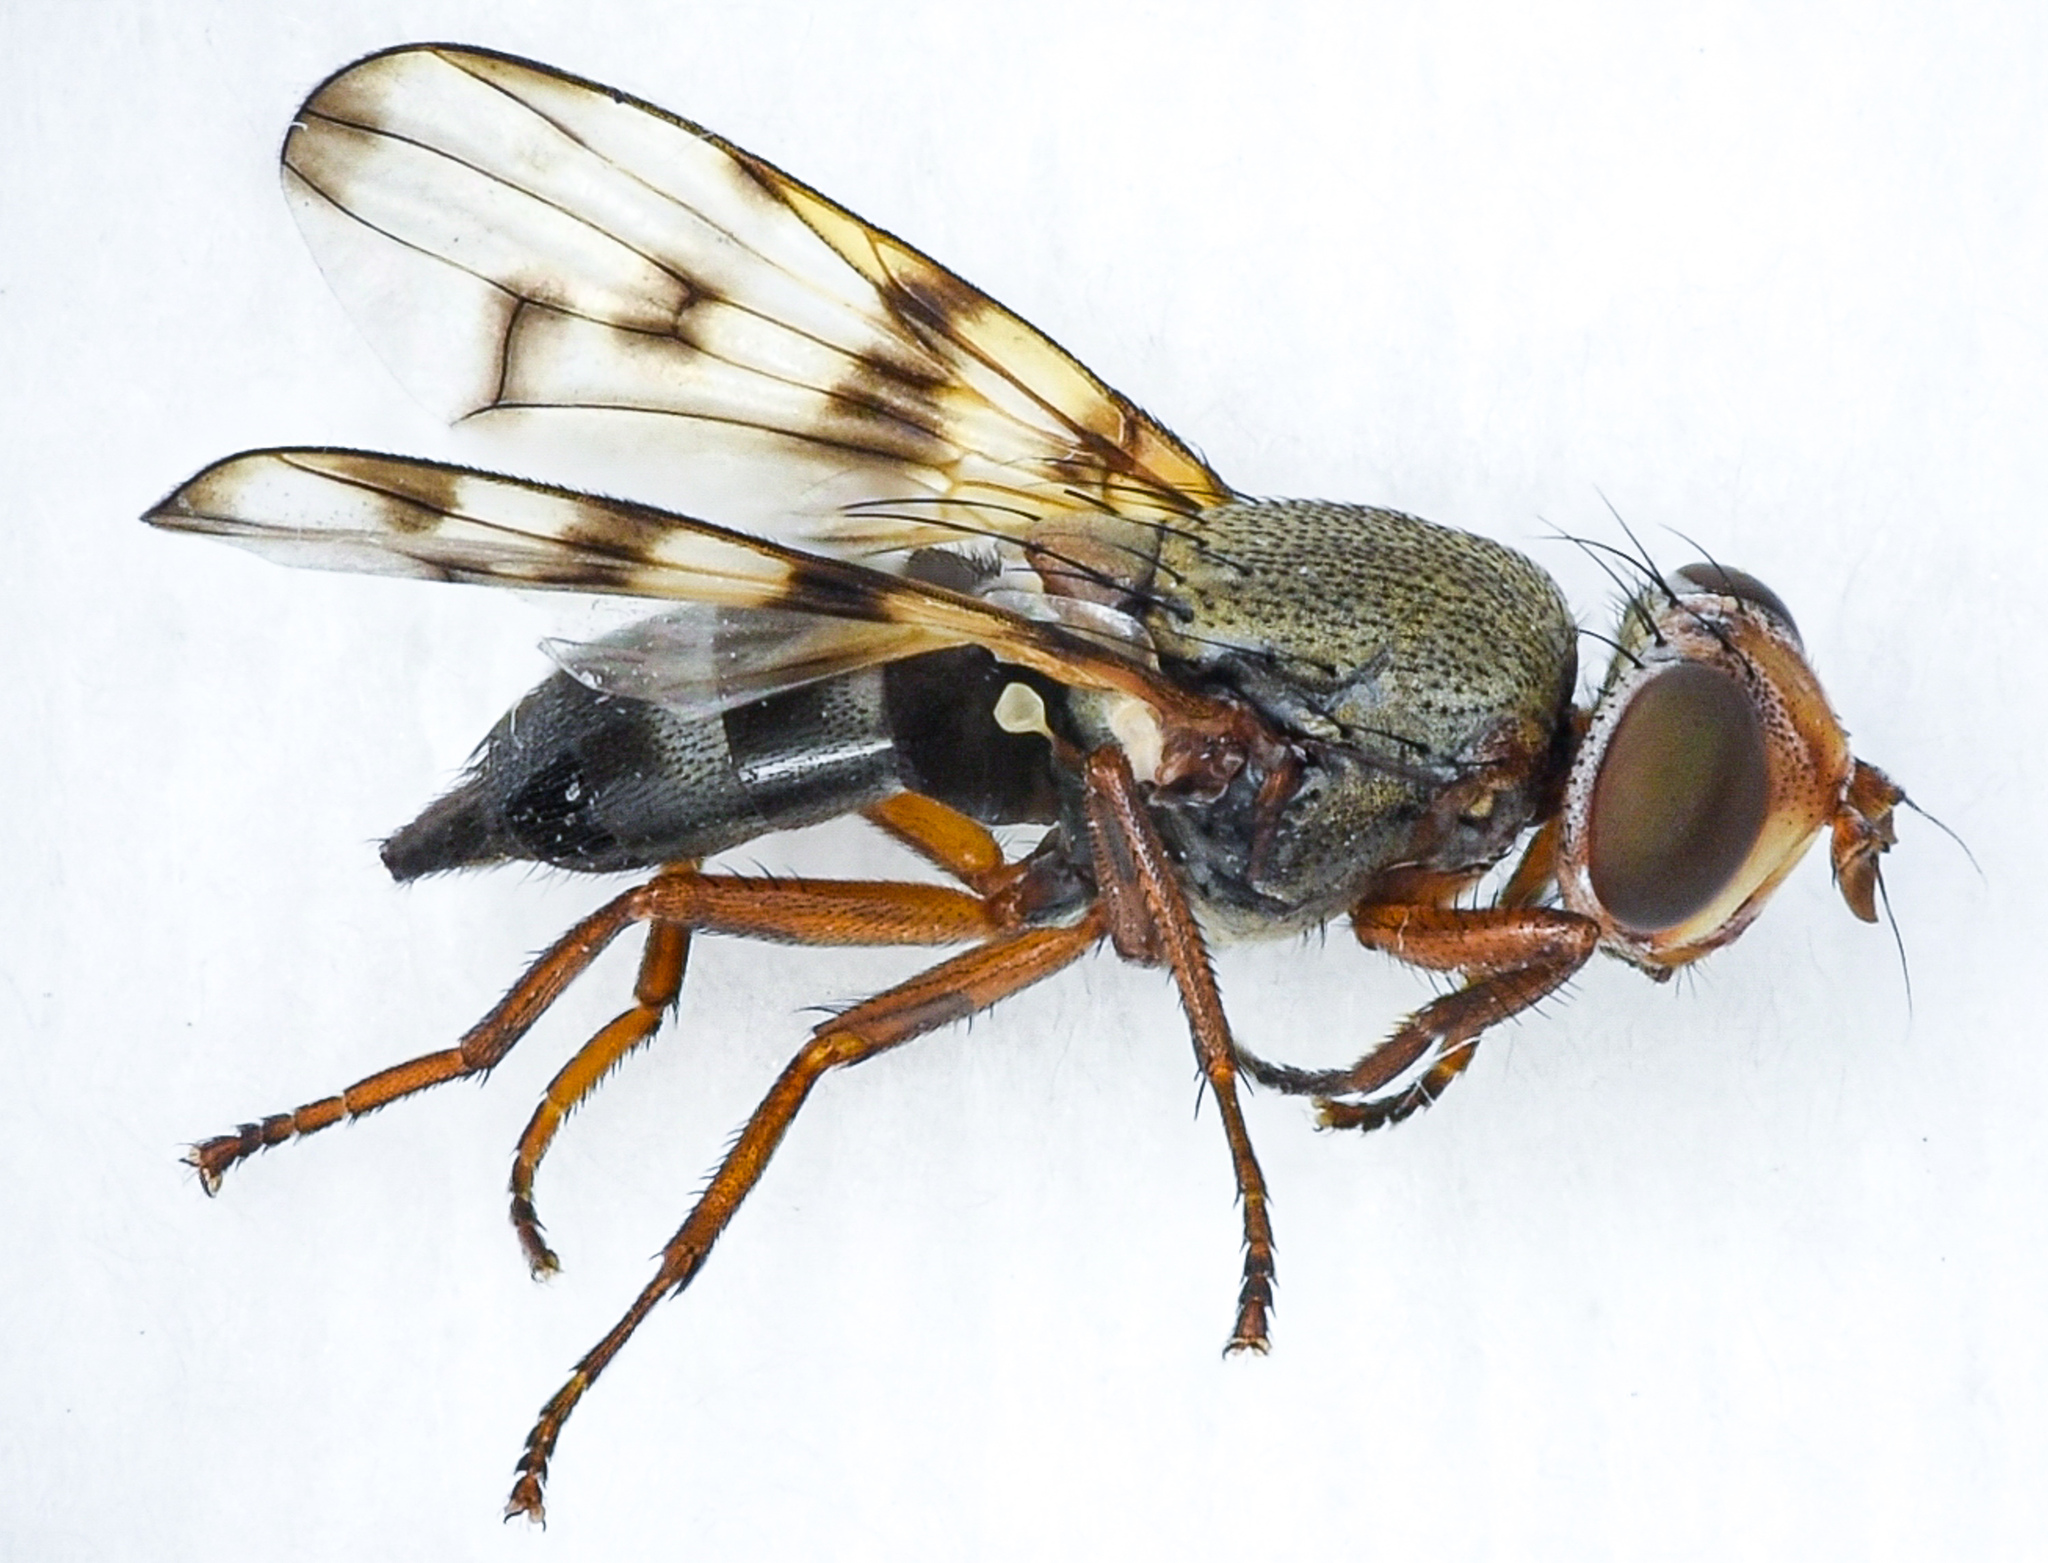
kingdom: Animalia
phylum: Arthropoda
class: Insecta
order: Diptera
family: Ulidiidae
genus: Ceroxys
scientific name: Ceroxys latiusculus
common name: Picture-winged fly
